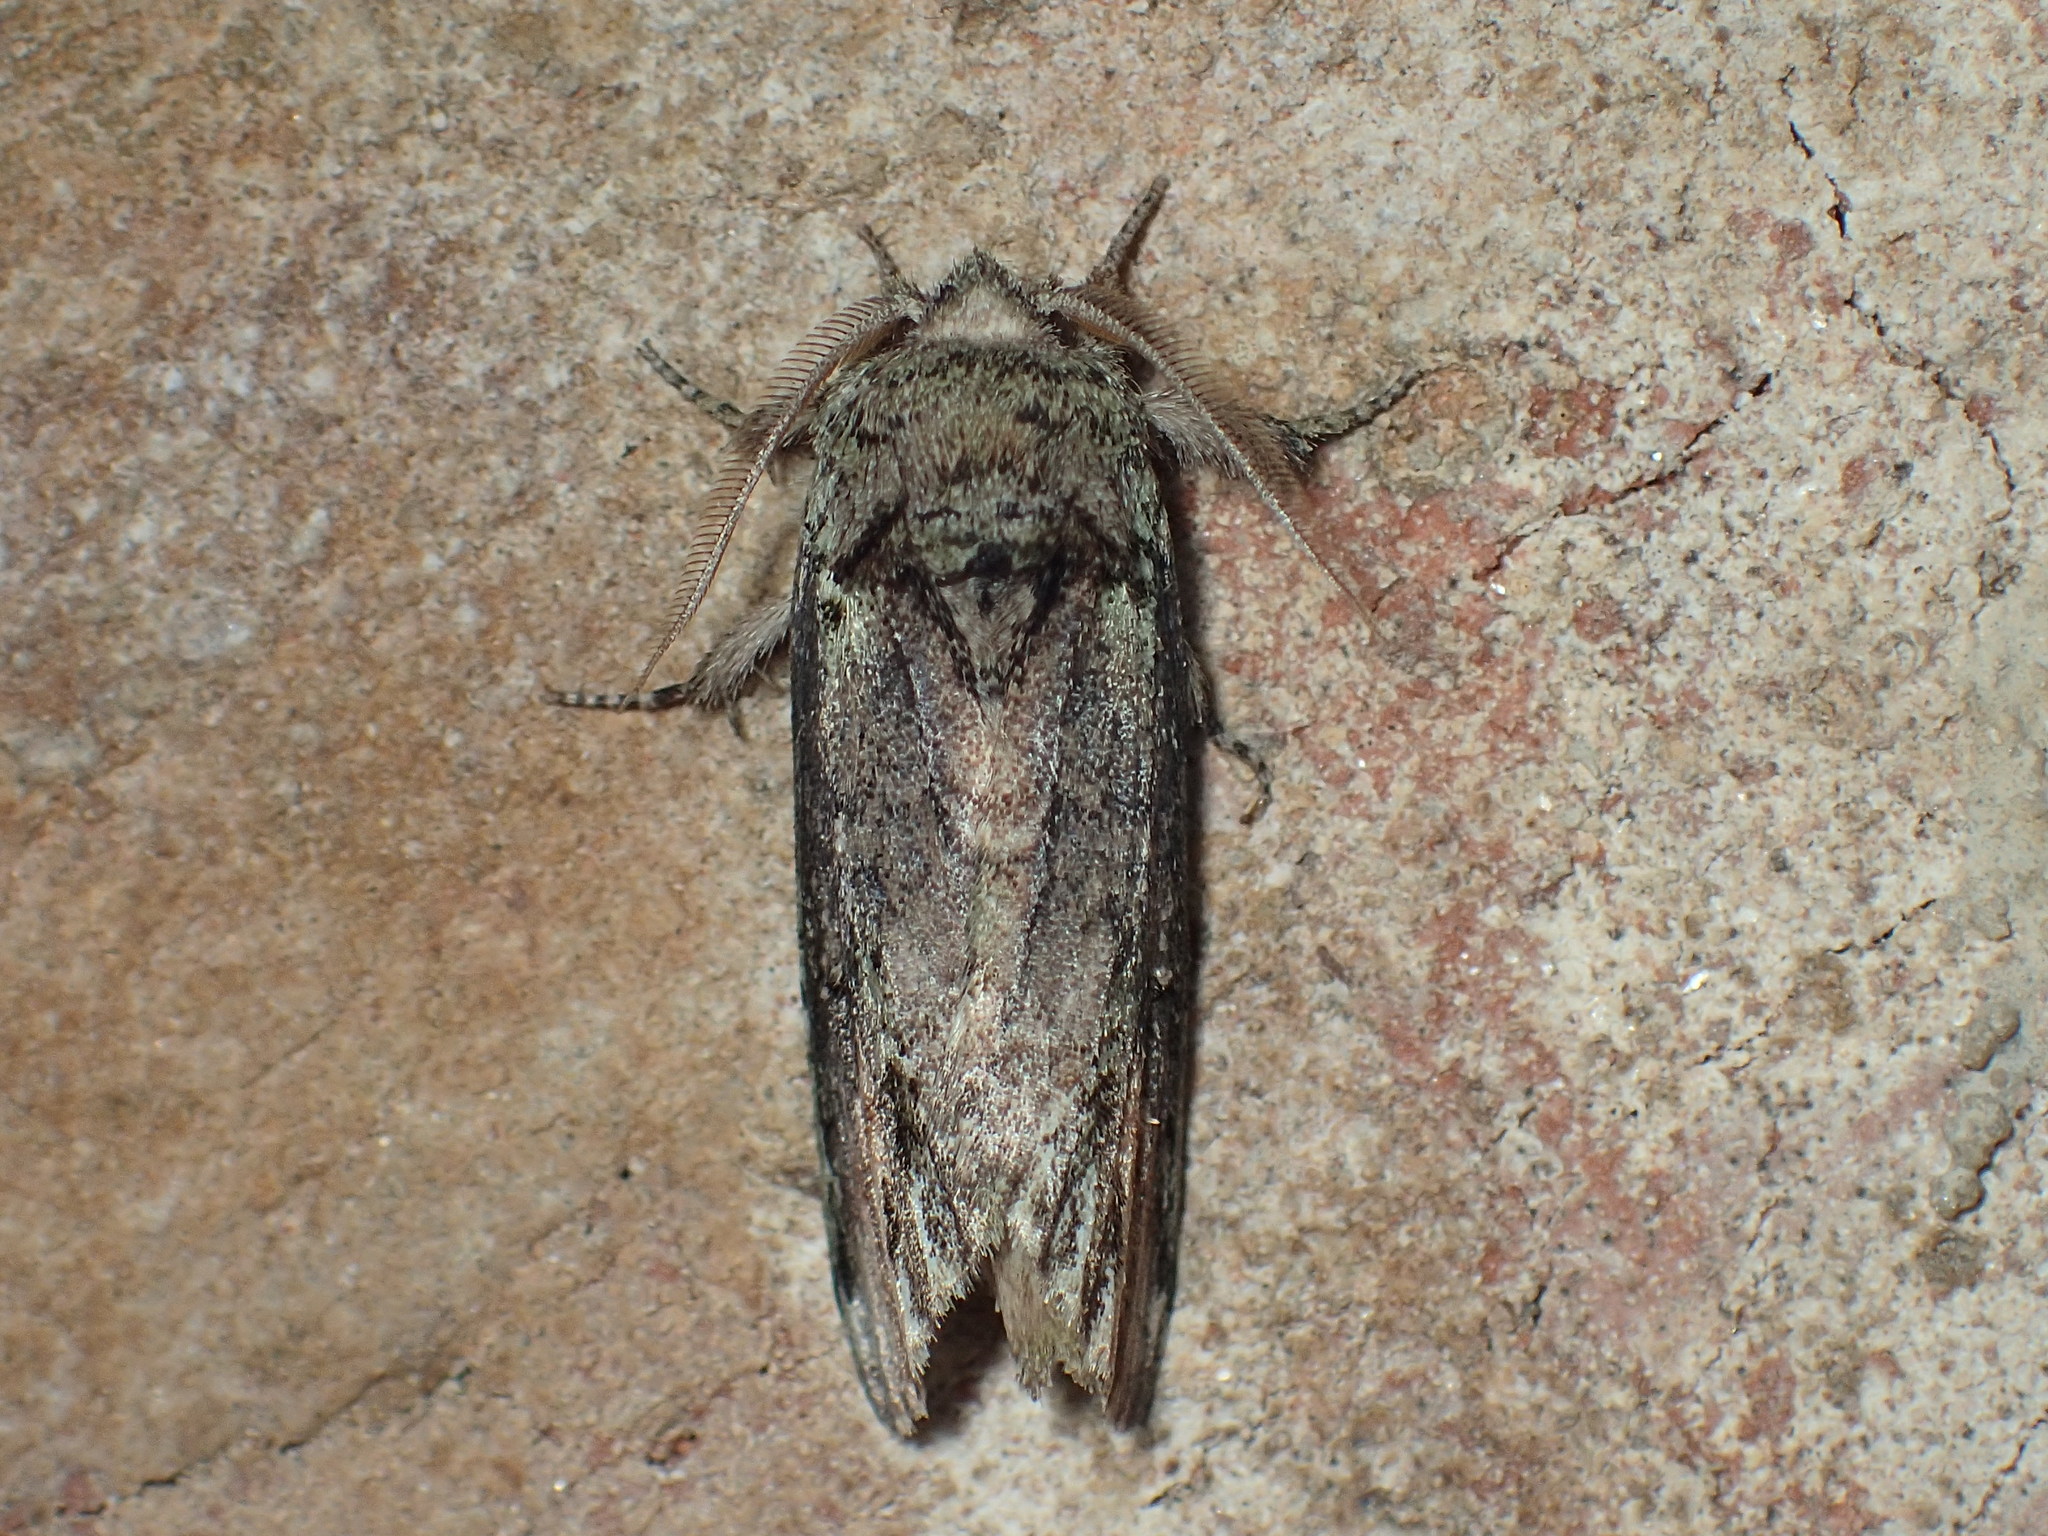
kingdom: Animalia
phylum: Arthropoda
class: Insecta
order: Lepidoptera
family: Notodontidae
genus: Schizura
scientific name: Schizura
